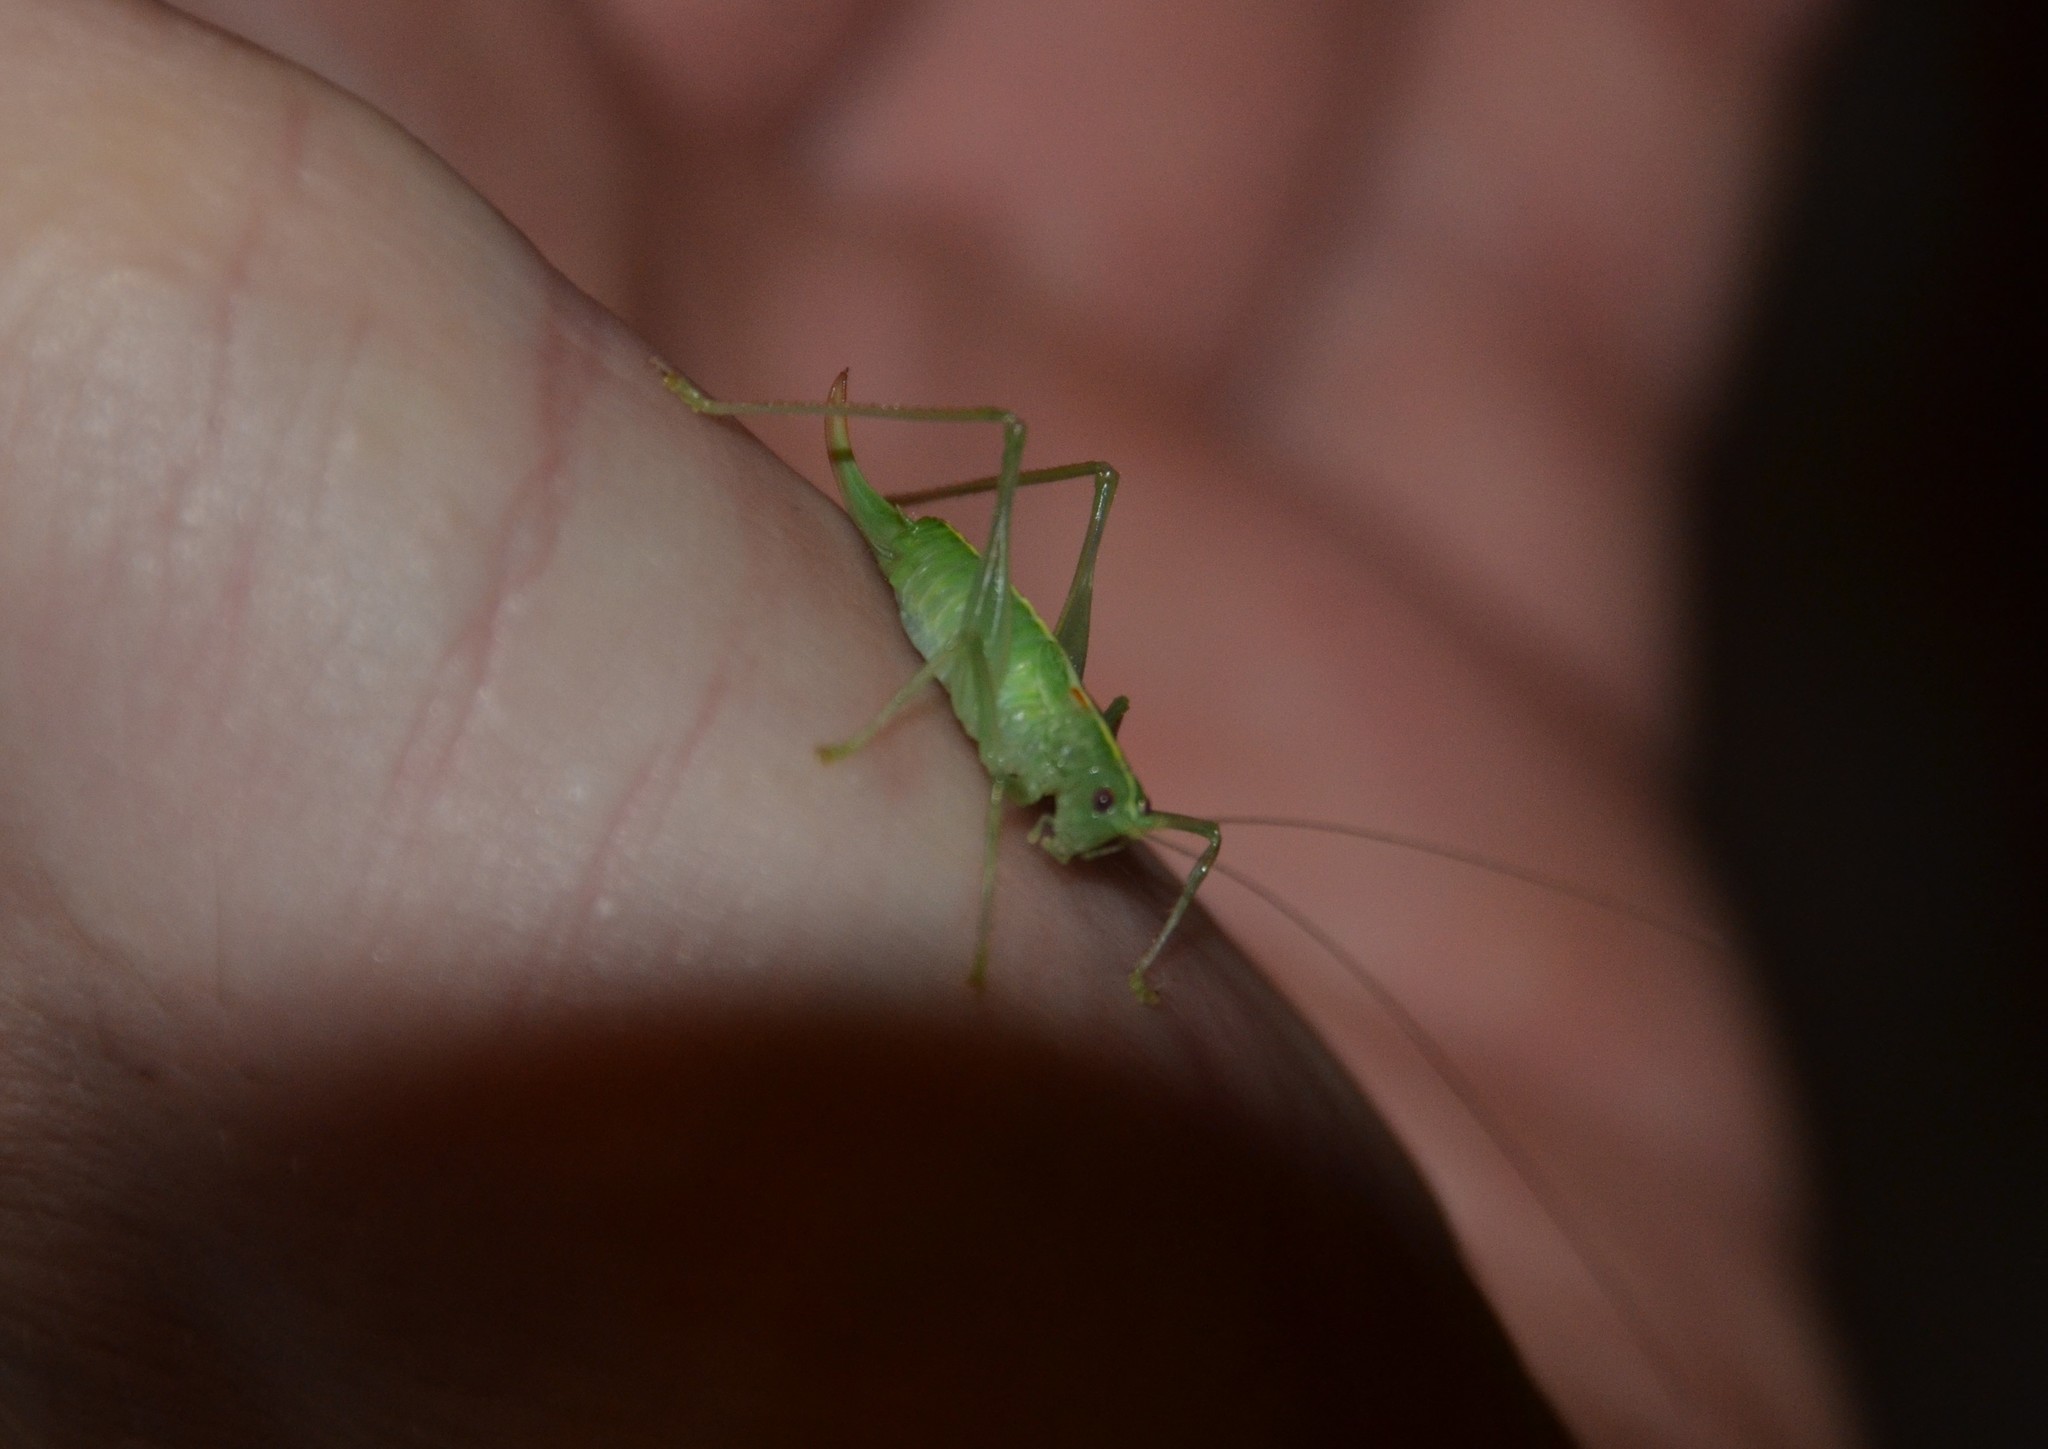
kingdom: Animalia
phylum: Arthropoda
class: Insecta
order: Orthoptera
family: Tettigoniidae
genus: Meconema
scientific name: Meconema meridionale
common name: Southern oak bush-cricket
